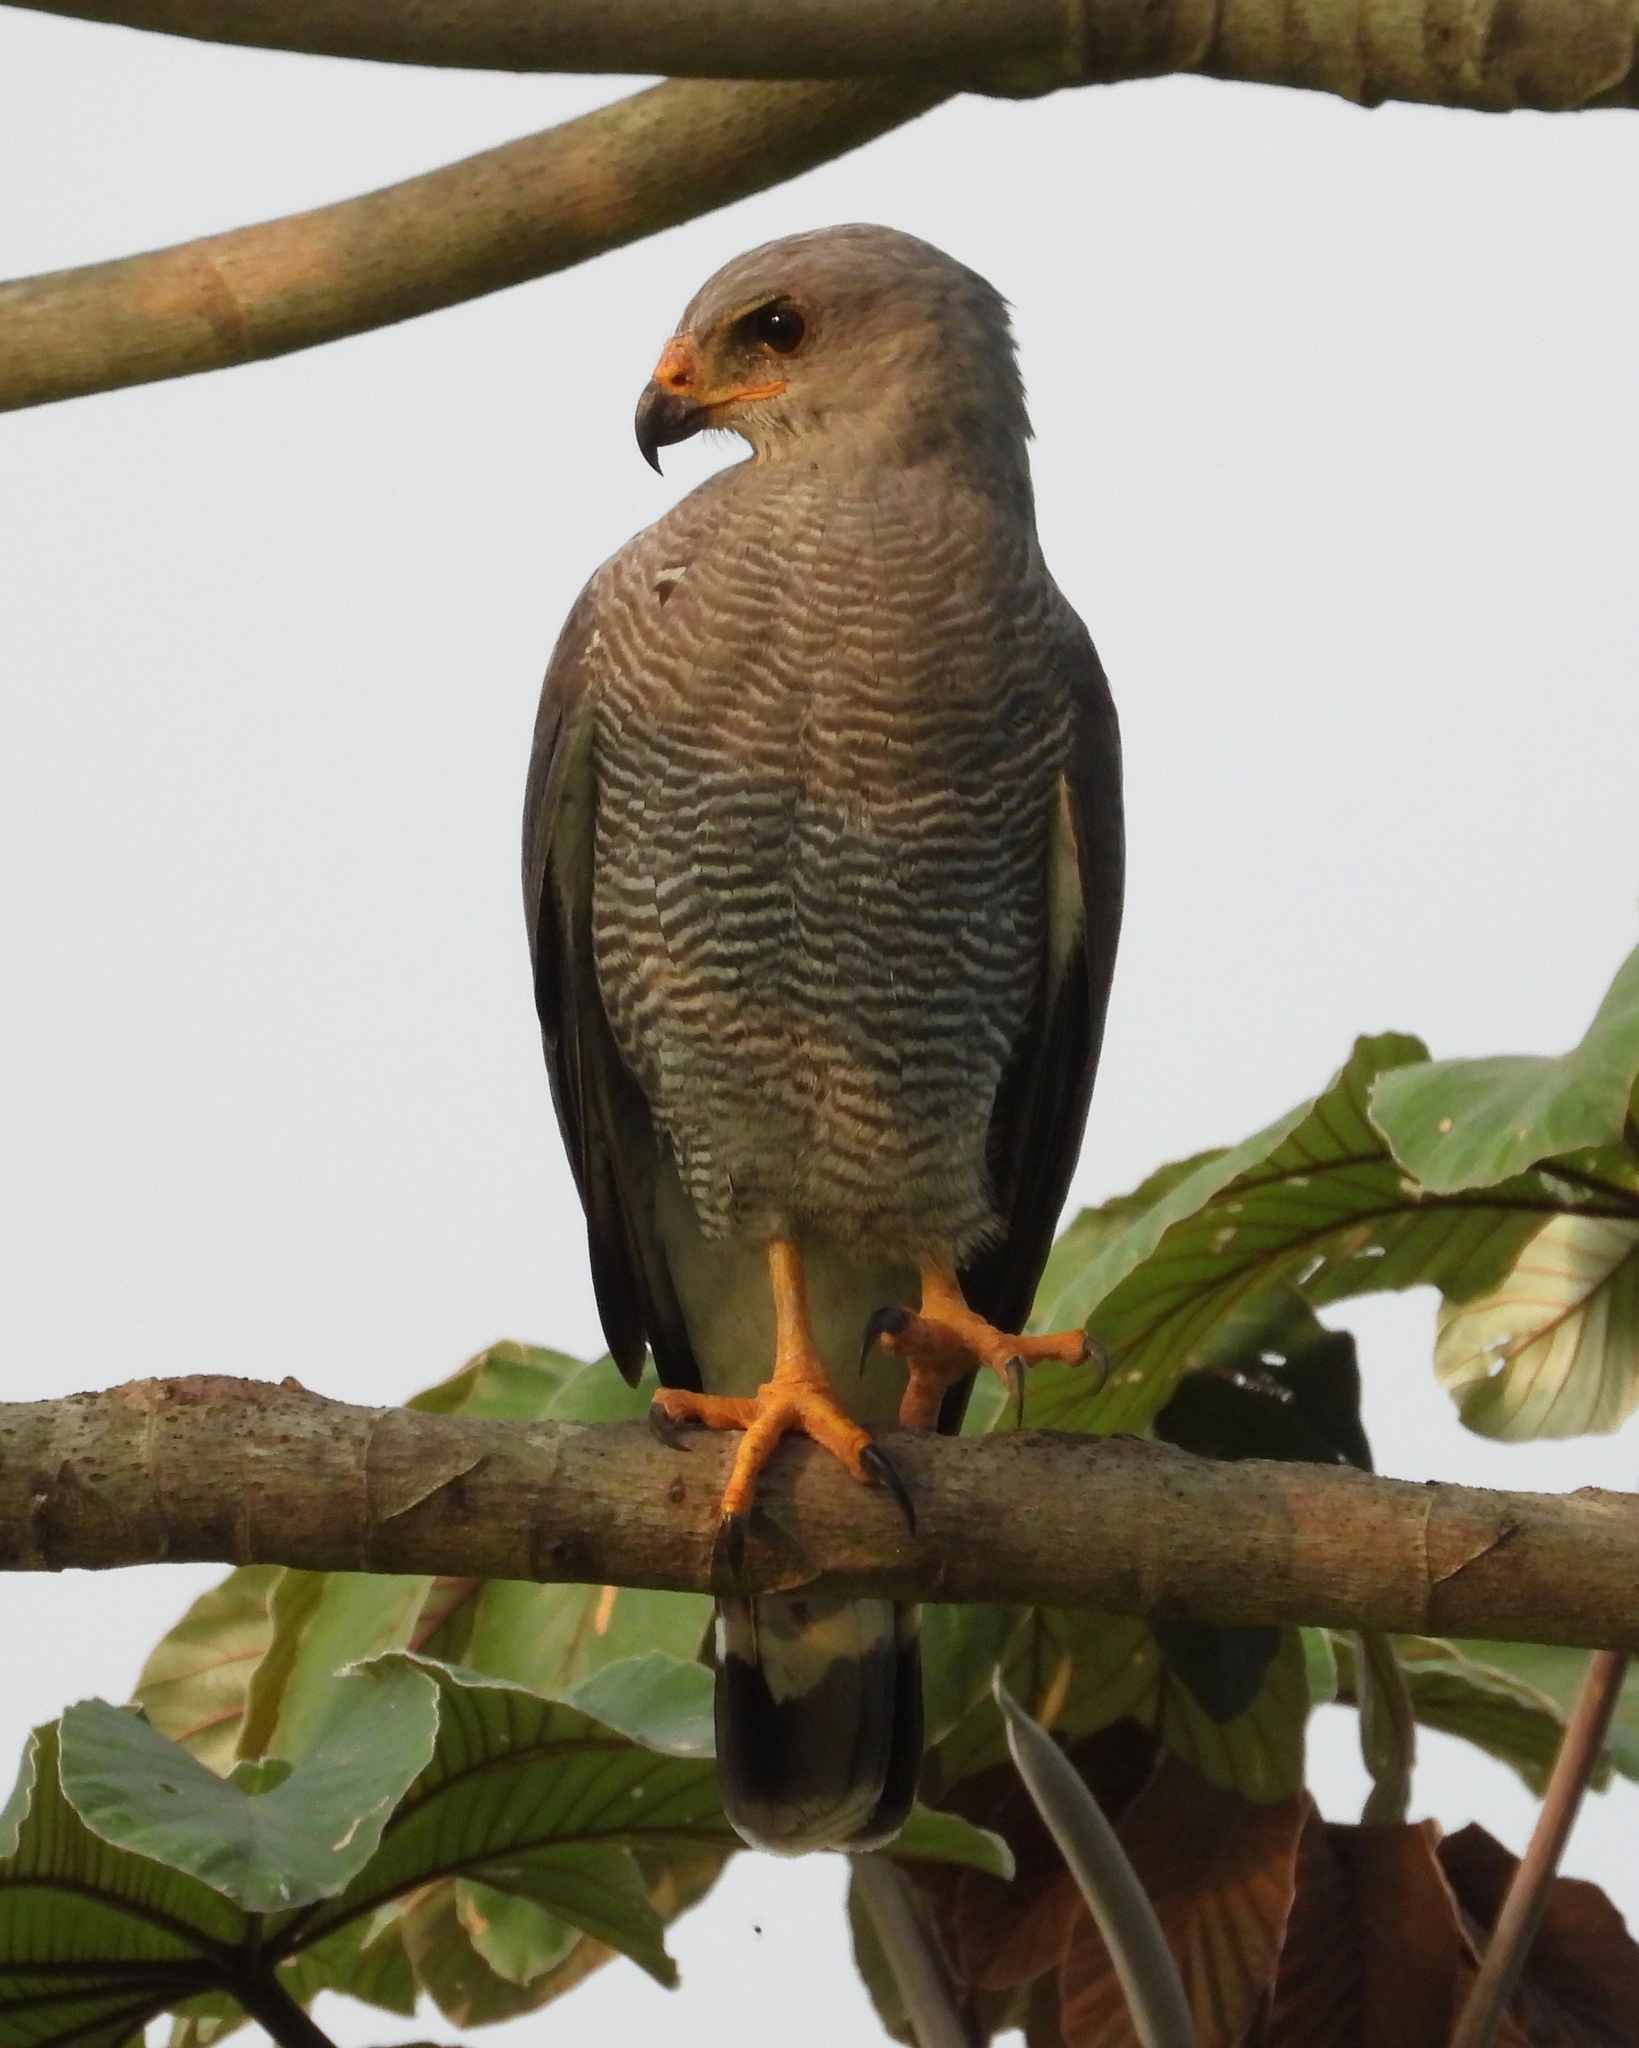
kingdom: Animalia
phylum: Chordata
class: Aves
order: Accipitriformes
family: Accipitridae
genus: Buteo
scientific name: Buteo nitidus
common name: Grey-lined hawk
